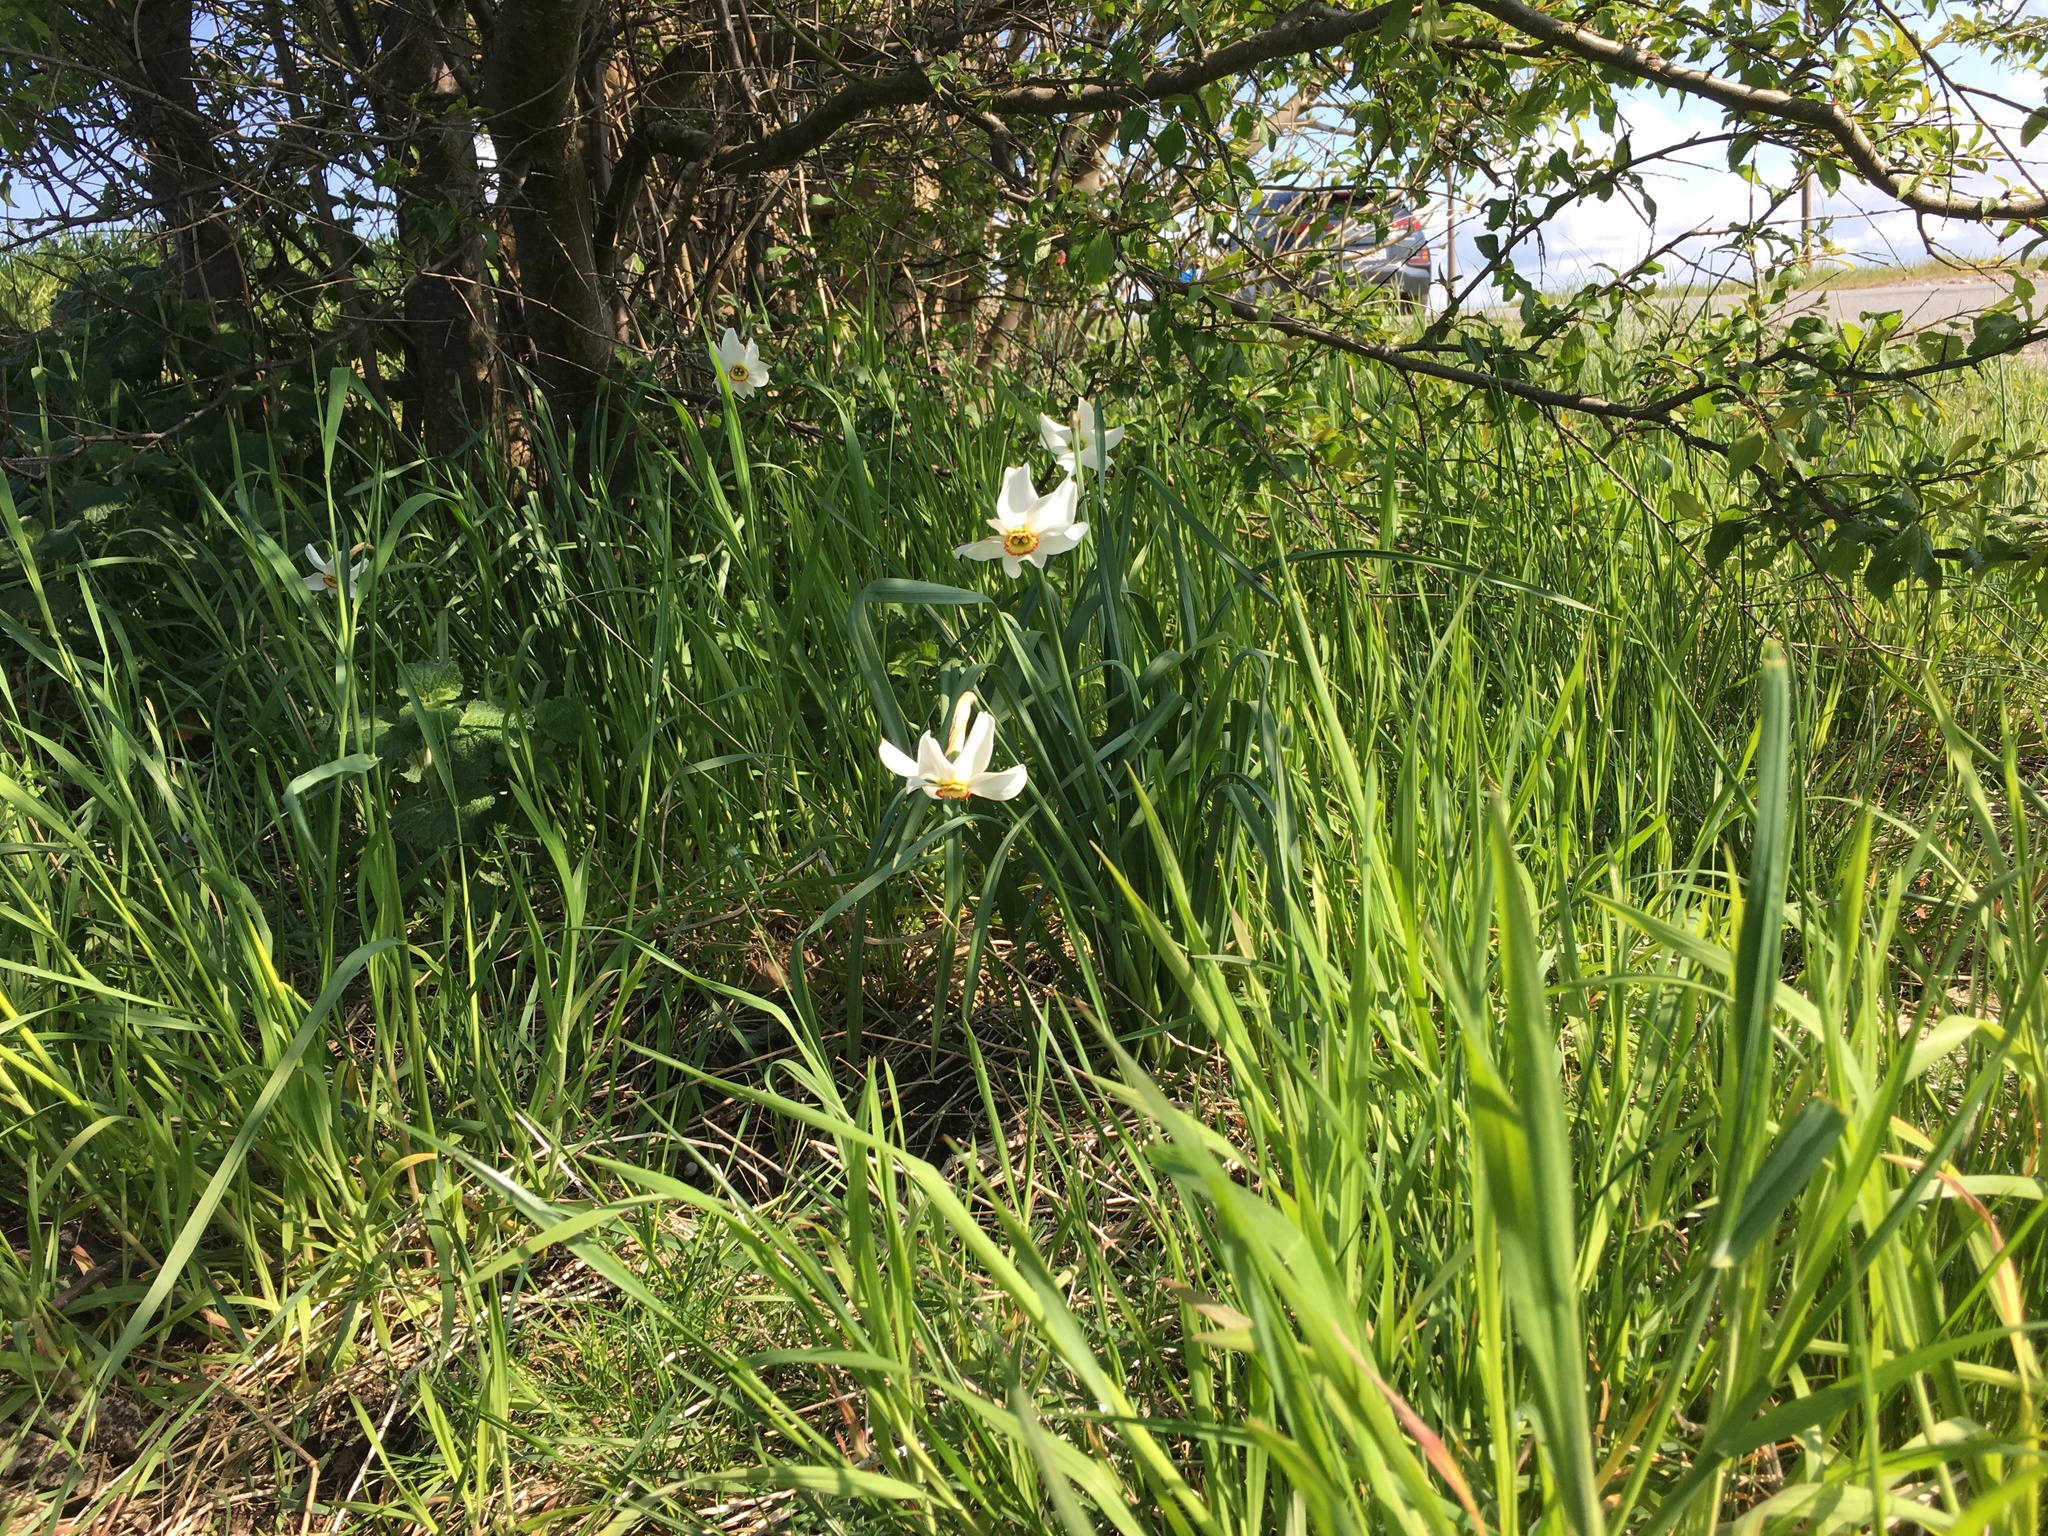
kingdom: Plantae
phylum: Tracheophyta
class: Liliopsida
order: Asparagales
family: Amaryllidaceae
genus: Narcissus
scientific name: Narcissus poeticus
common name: Pheasant's-eye daffodil
